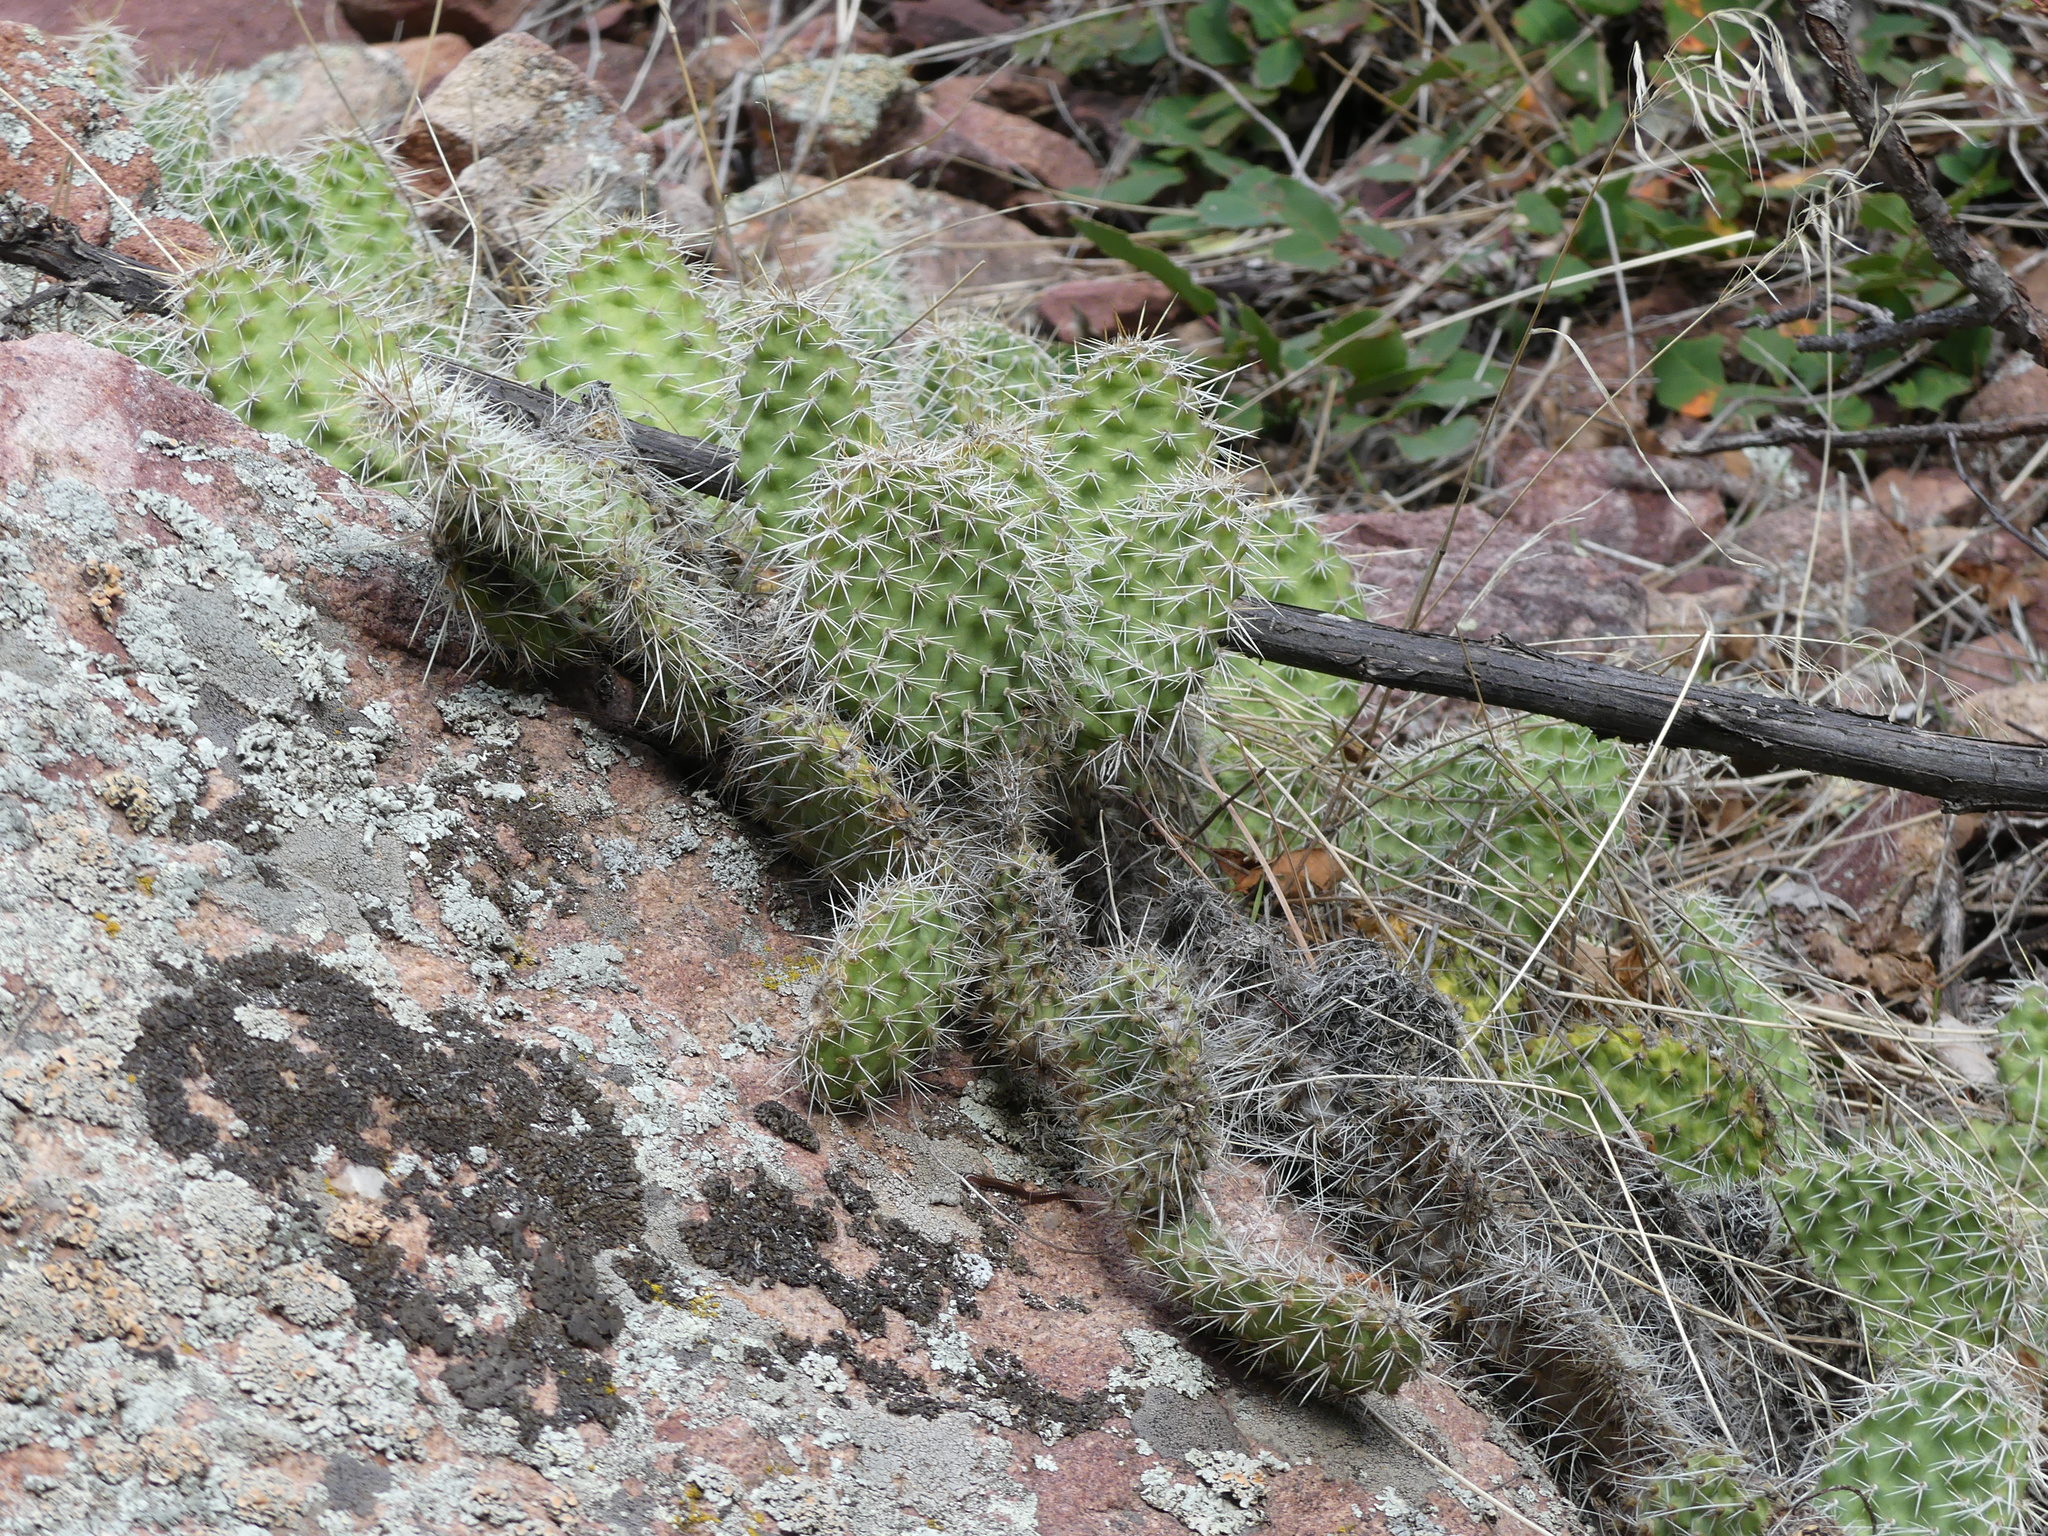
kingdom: Plantae
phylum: Tracheophyta
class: Magnoliopsida
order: Caryophyllales
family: Cactaceae
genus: Opuntia
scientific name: Opuntia polyacantha
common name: Plains prickly-pear
